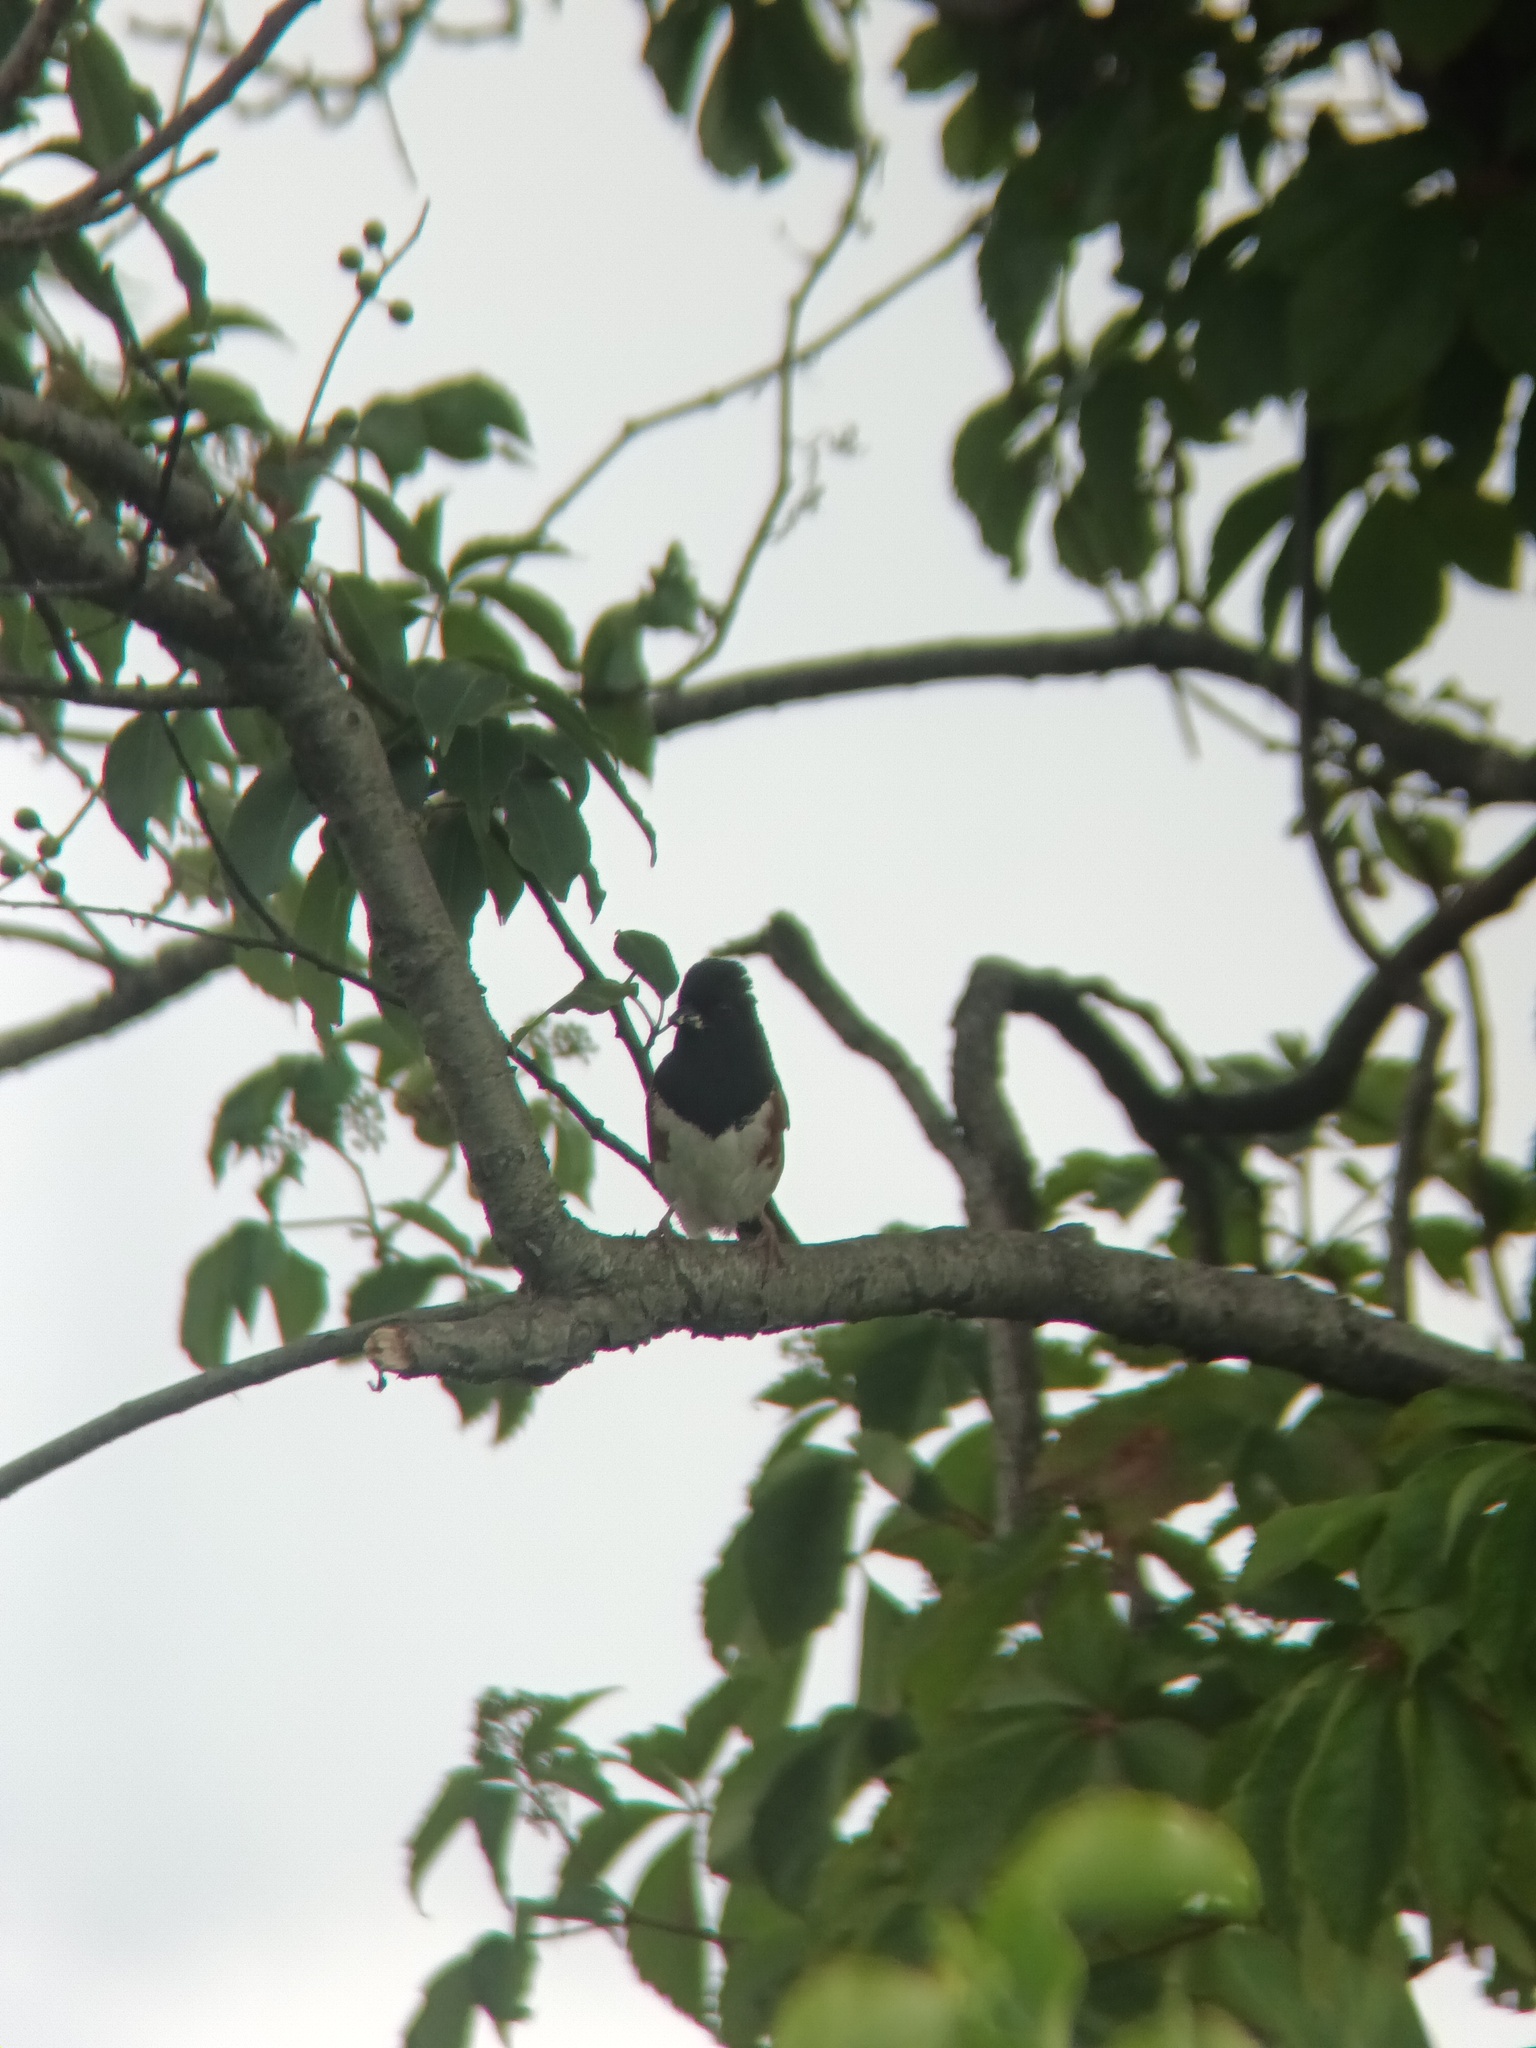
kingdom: Animalia
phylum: Chordata
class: Aves
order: Passeriformes
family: Passerellidae
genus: Pipilo
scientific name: Pipilo erythrophthalmus
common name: Eastern towhee
